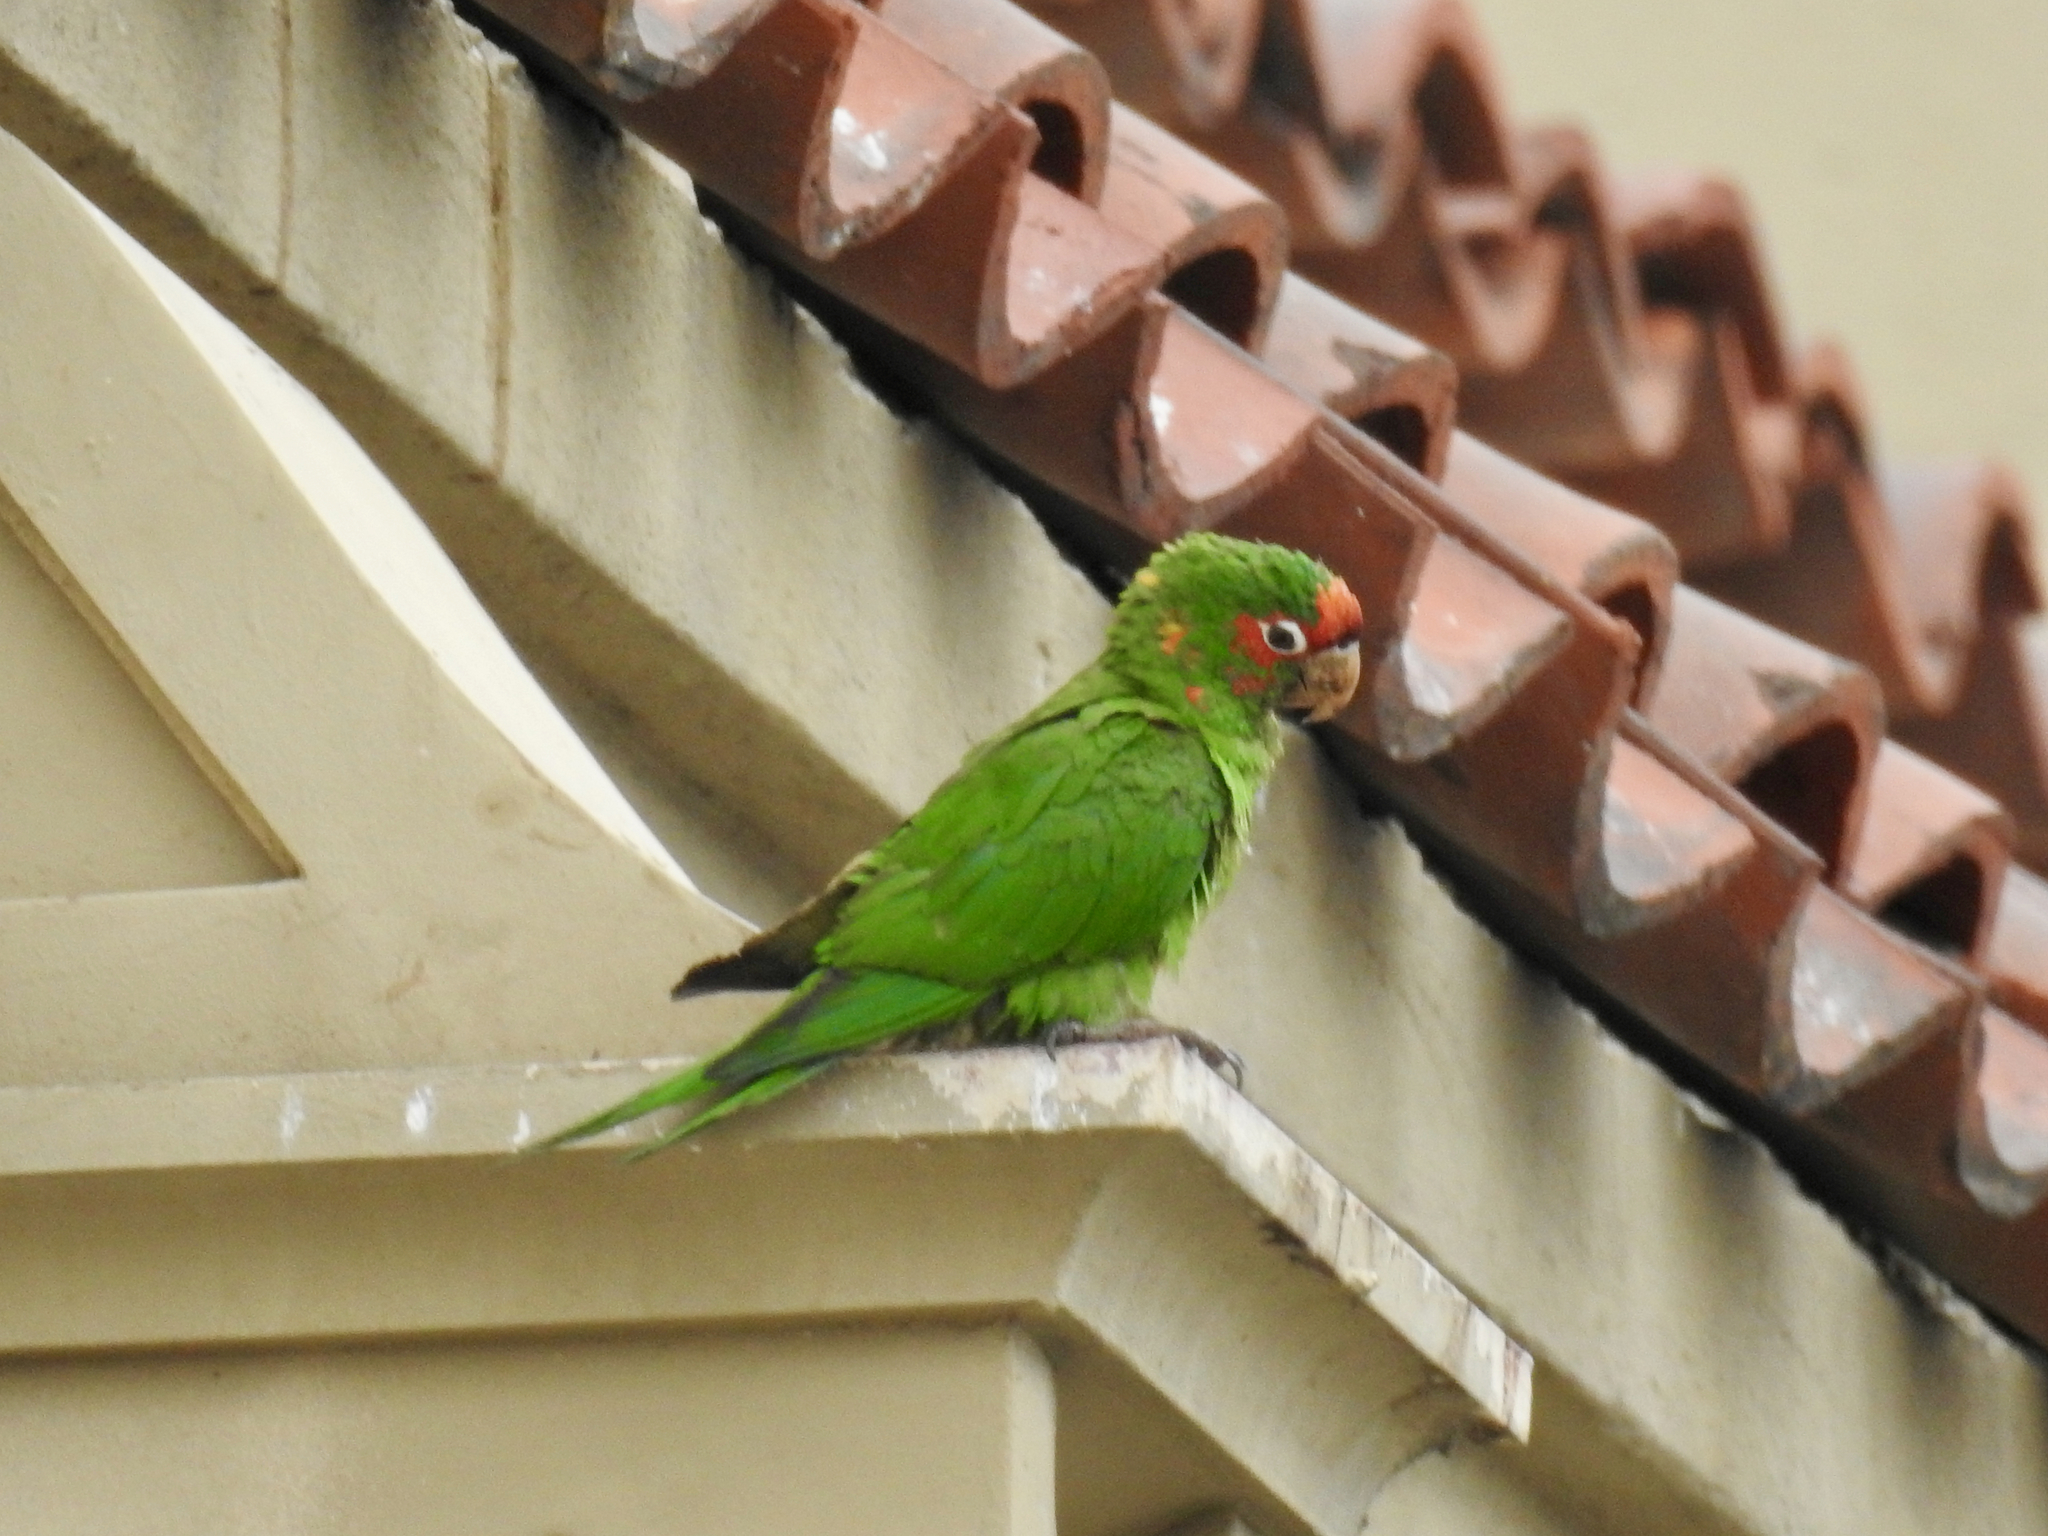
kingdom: Animalia
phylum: Chordata
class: Aves
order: Psittaciformes
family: Psittacidae
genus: Aratinga
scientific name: Aratinga mitrata
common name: Mitred parakeet
